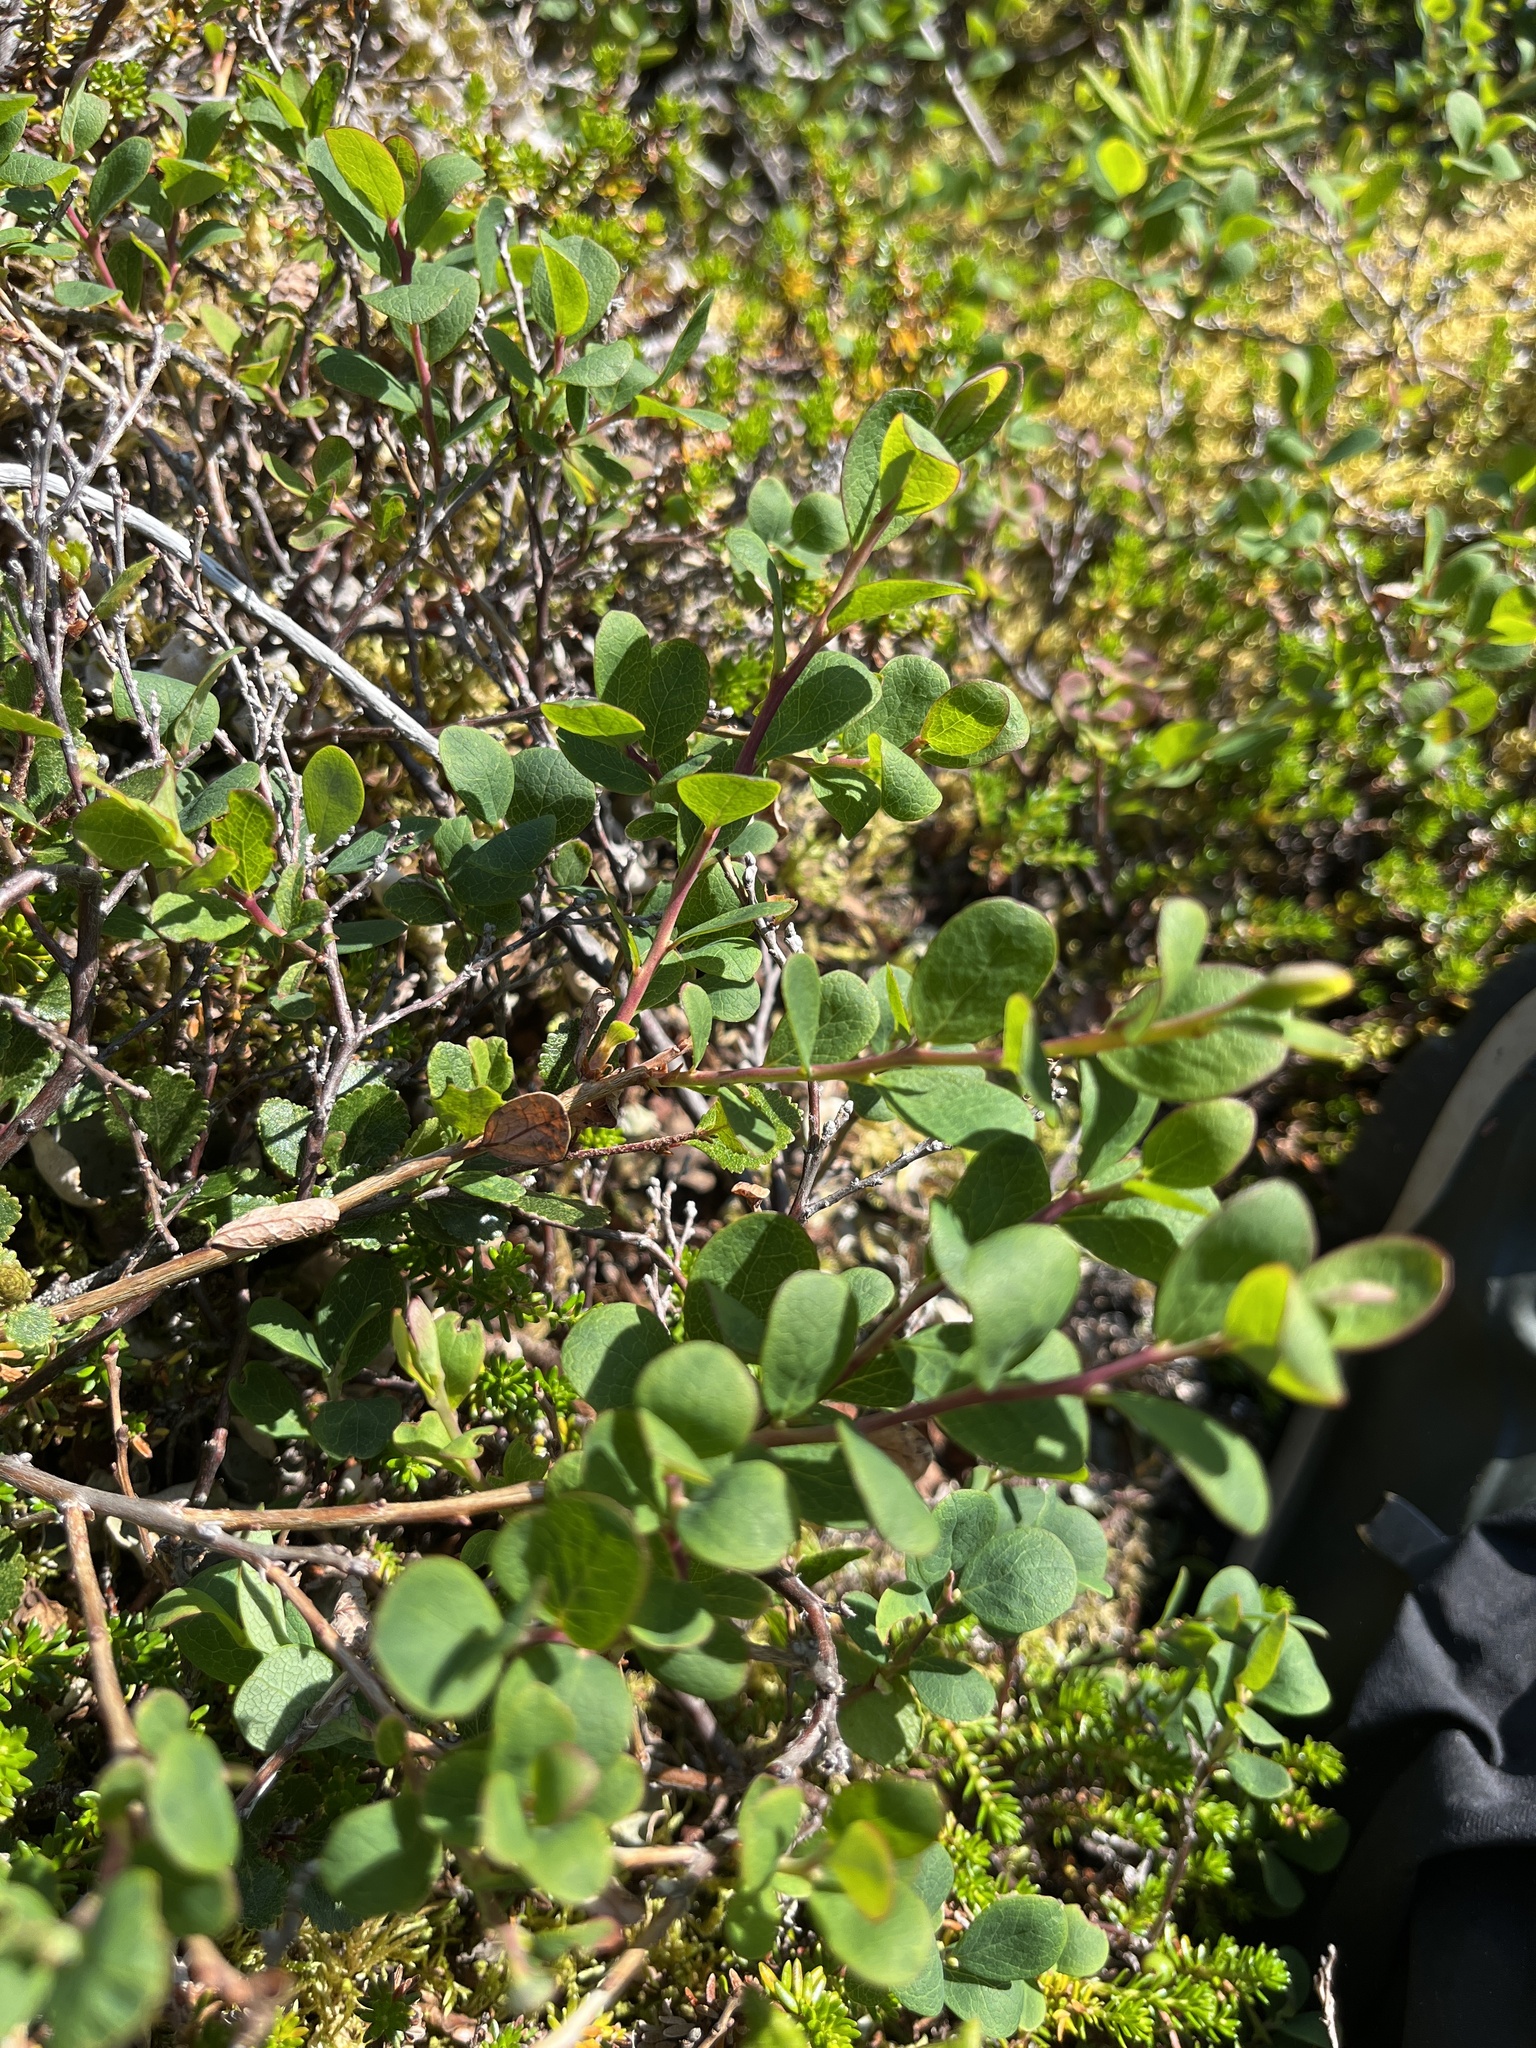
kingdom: Plantae
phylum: Tracheophyta
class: Magnoliopsida
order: Ericales
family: Ericaceae
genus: Vaccinium
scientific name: Vaccinium uliginosum
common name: Bog bilberry
